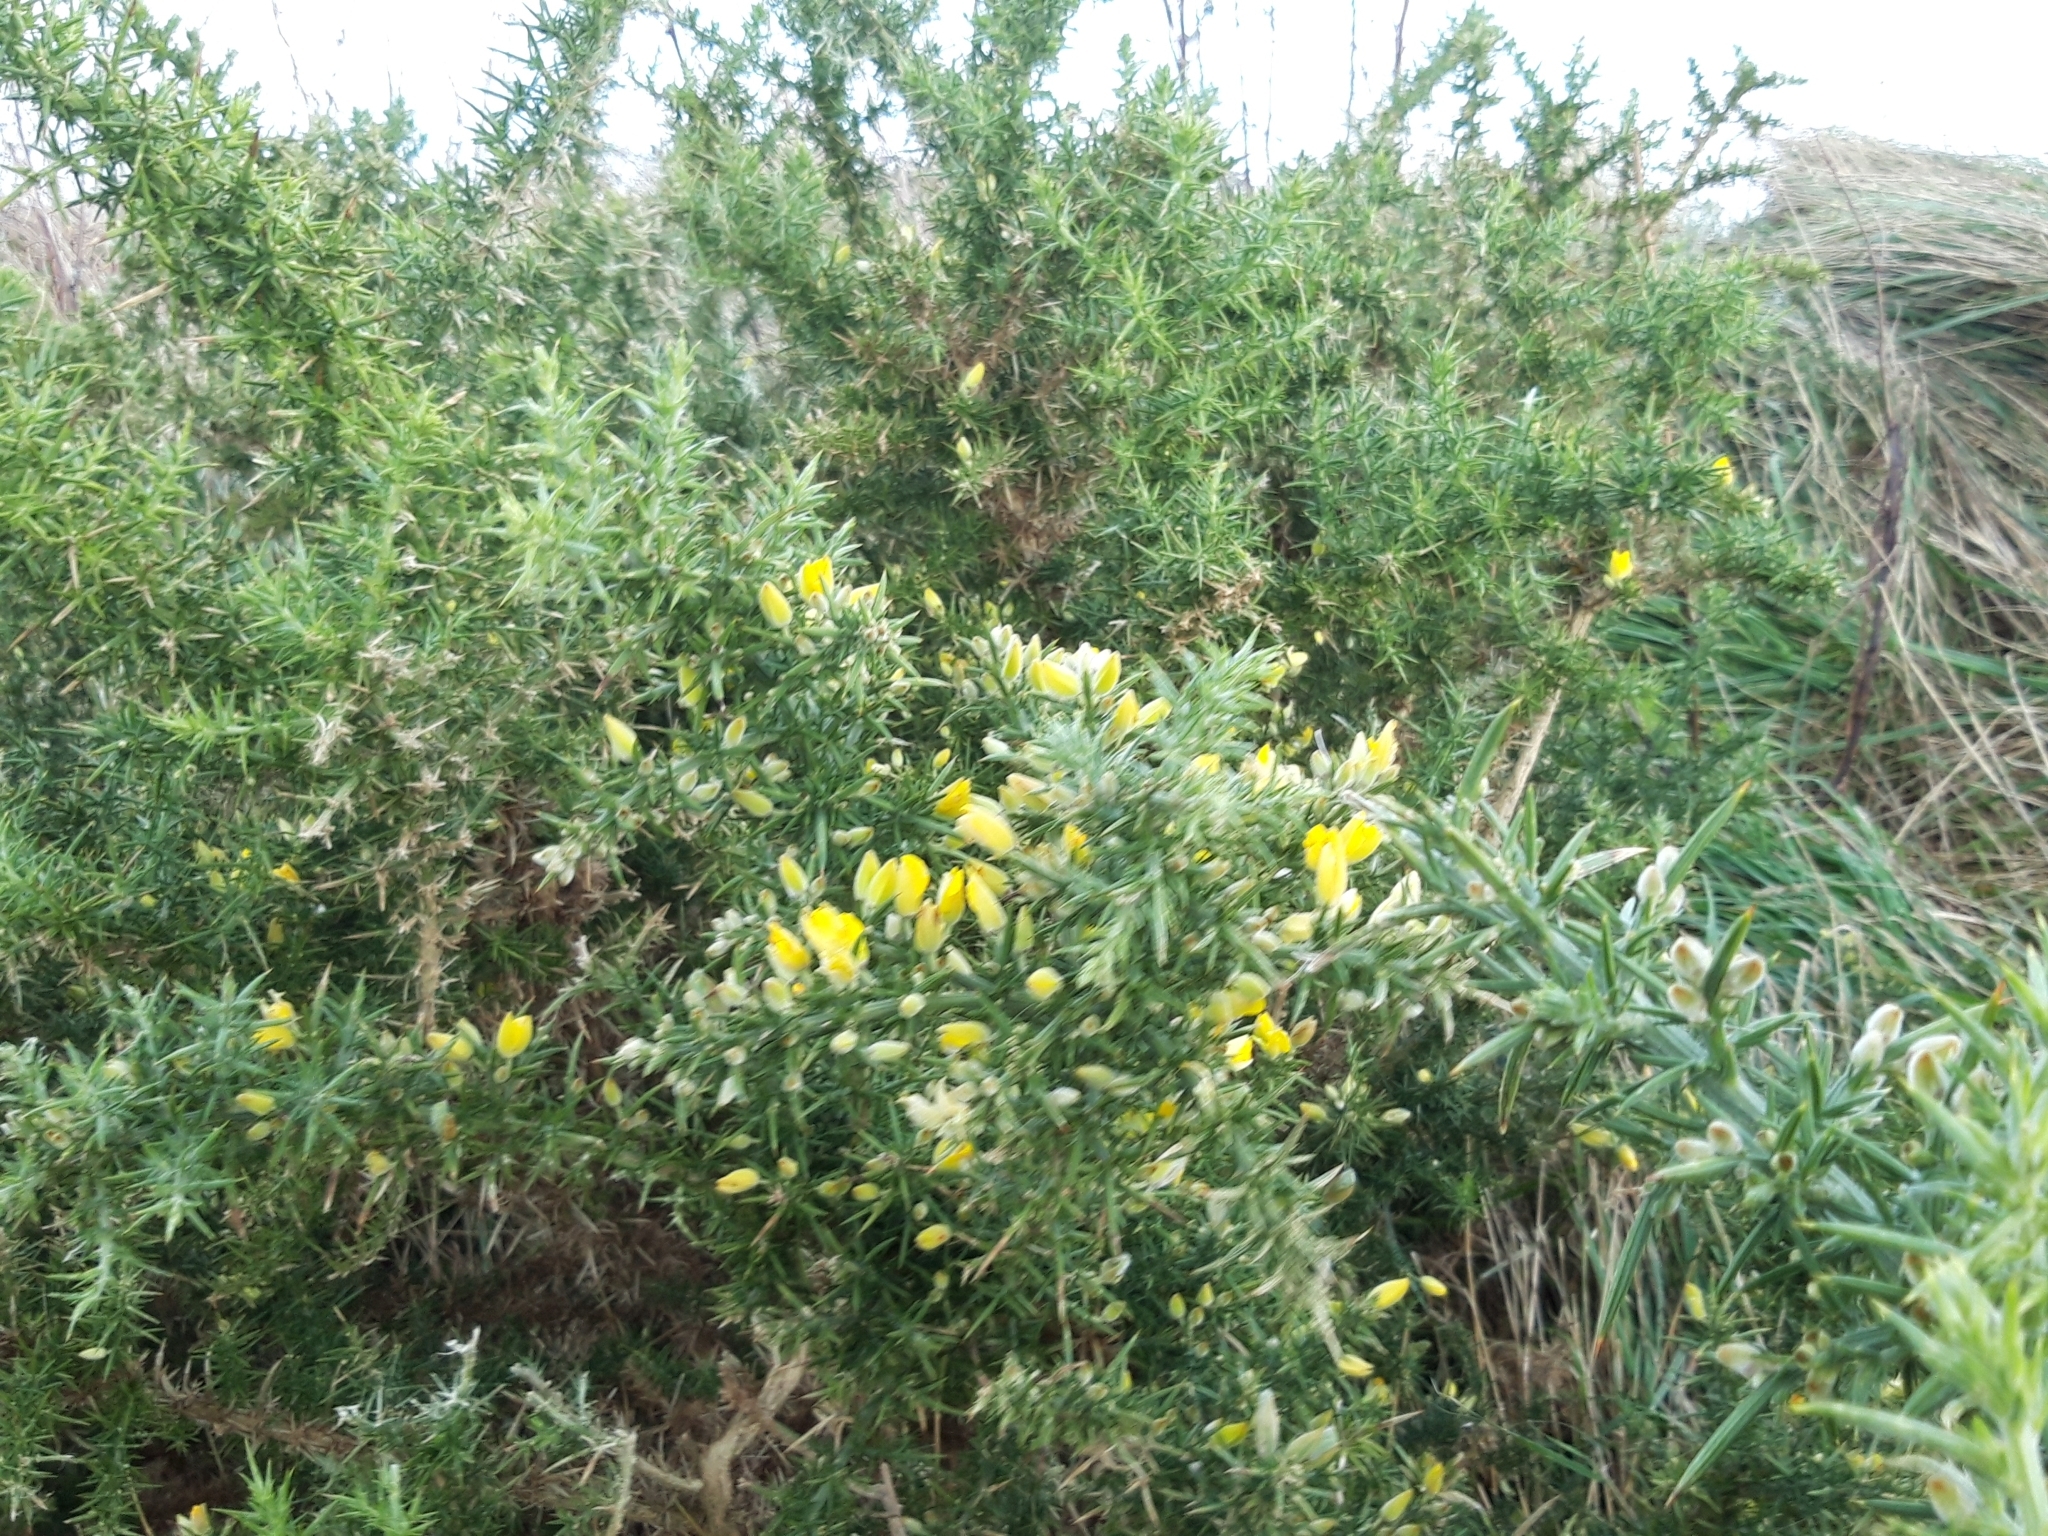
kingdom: Plantae
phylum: Tracheophyta
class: Magnoliopsida
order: Fabales
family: Fabaceae
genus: Ulex
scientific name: Ulex europaeus
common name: Common gorse
